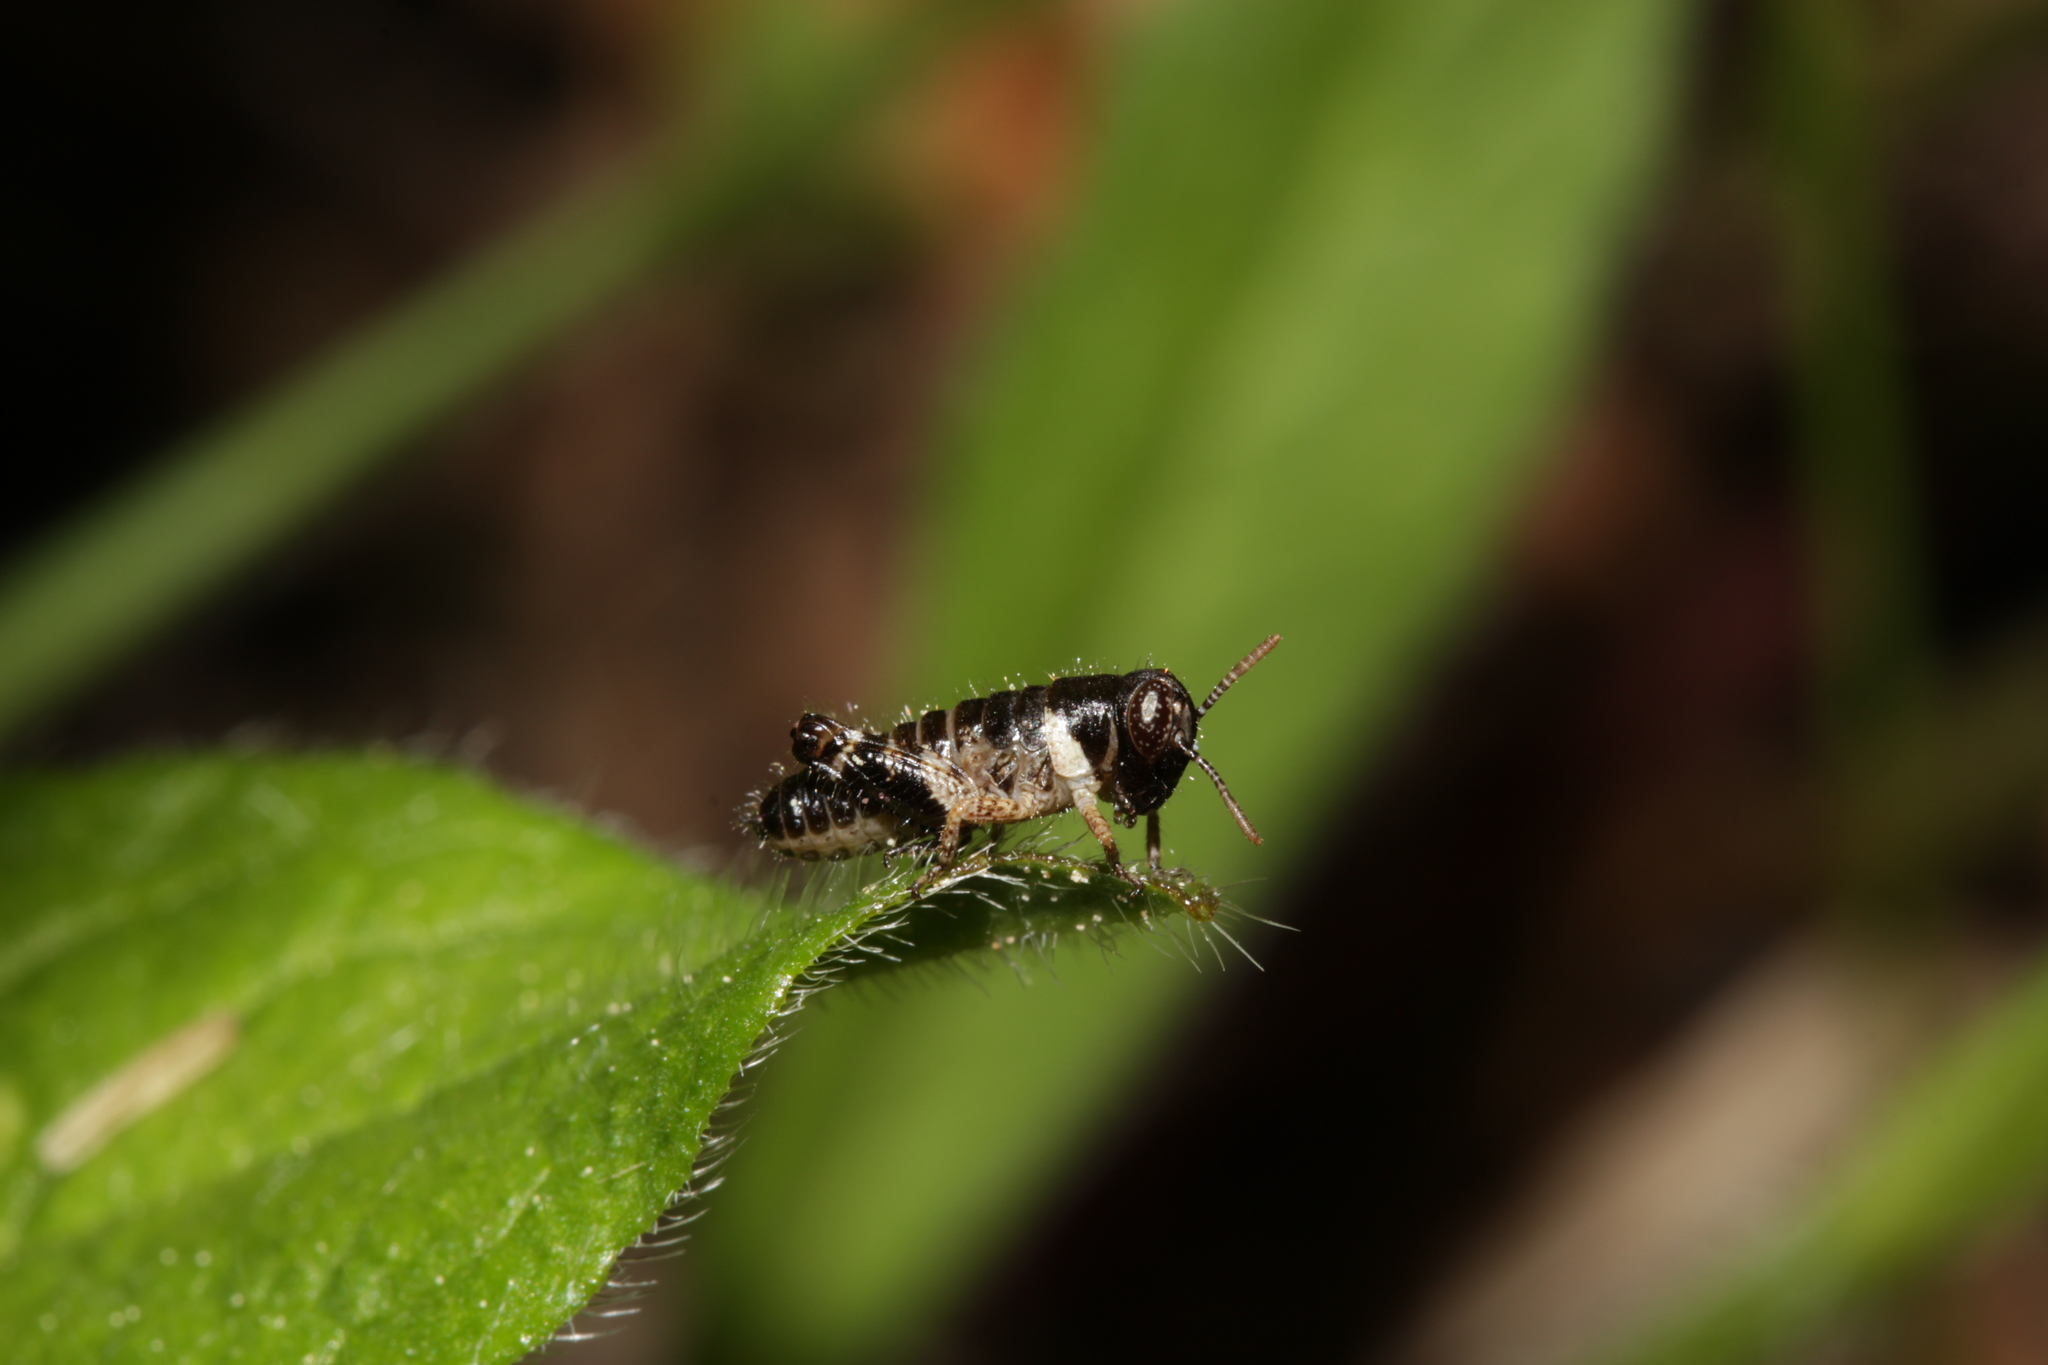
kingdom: Animalia
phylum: Arthropoda
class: Insecta
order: Orthoptera
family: Acrididae
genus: Calliptamus
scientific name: Calliptamus italicus
